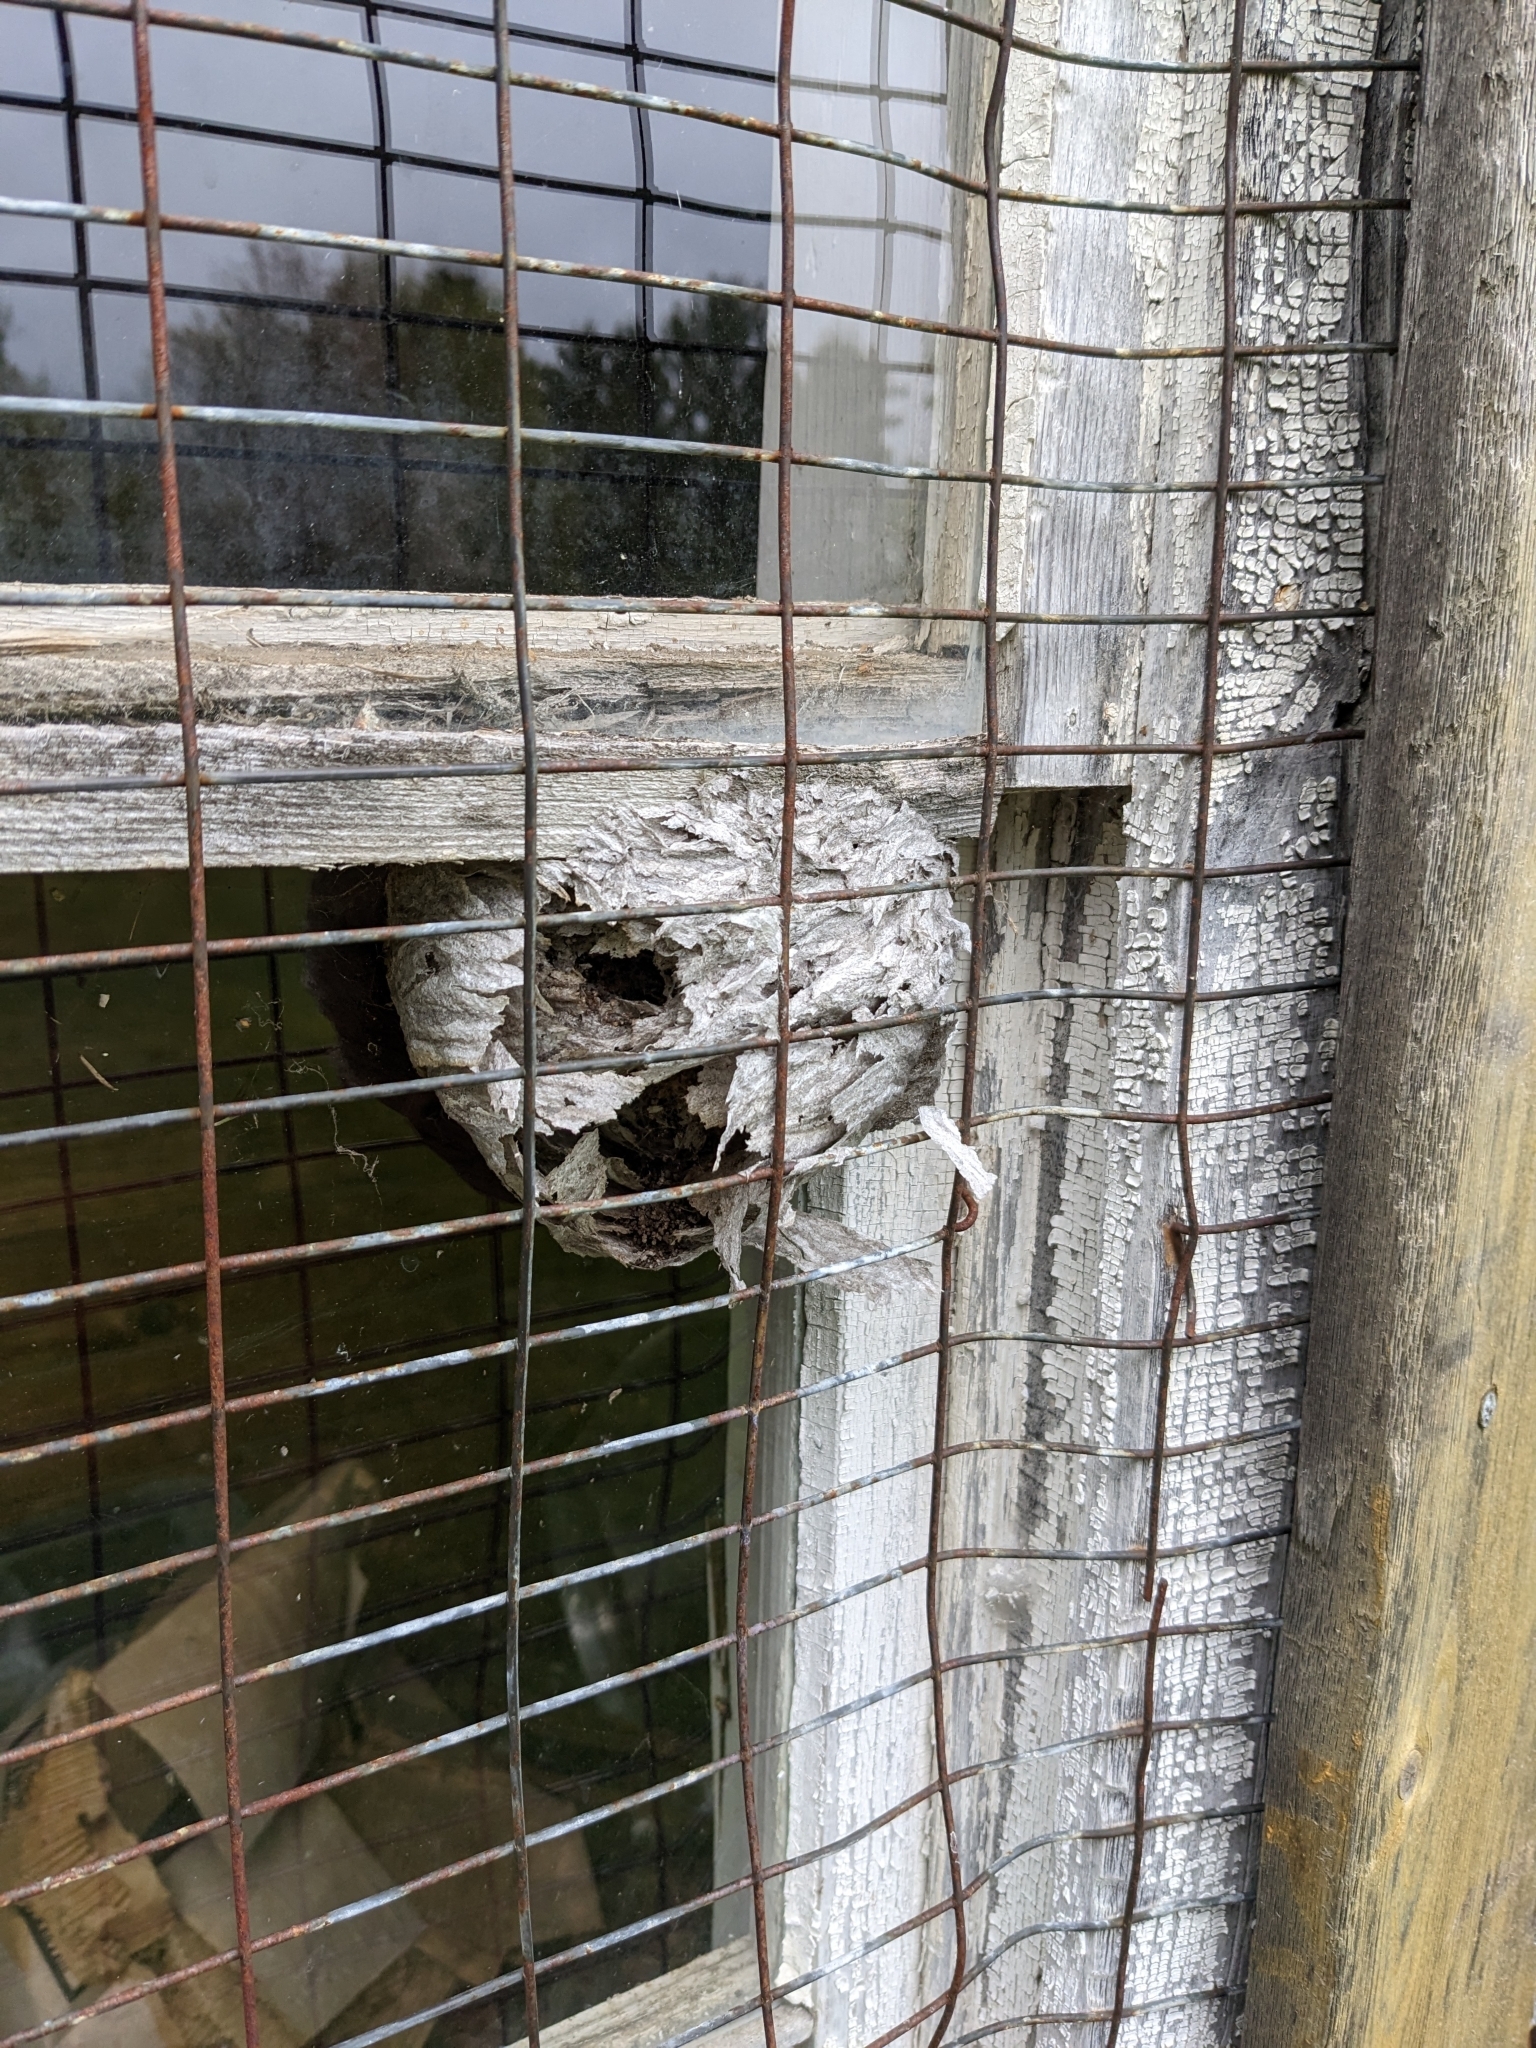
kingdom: Animalia
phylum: Arthropoda
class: Insecta
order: Hymenoptera
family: Vespidae
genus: Dolichovespula
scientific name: Dolichovespula
